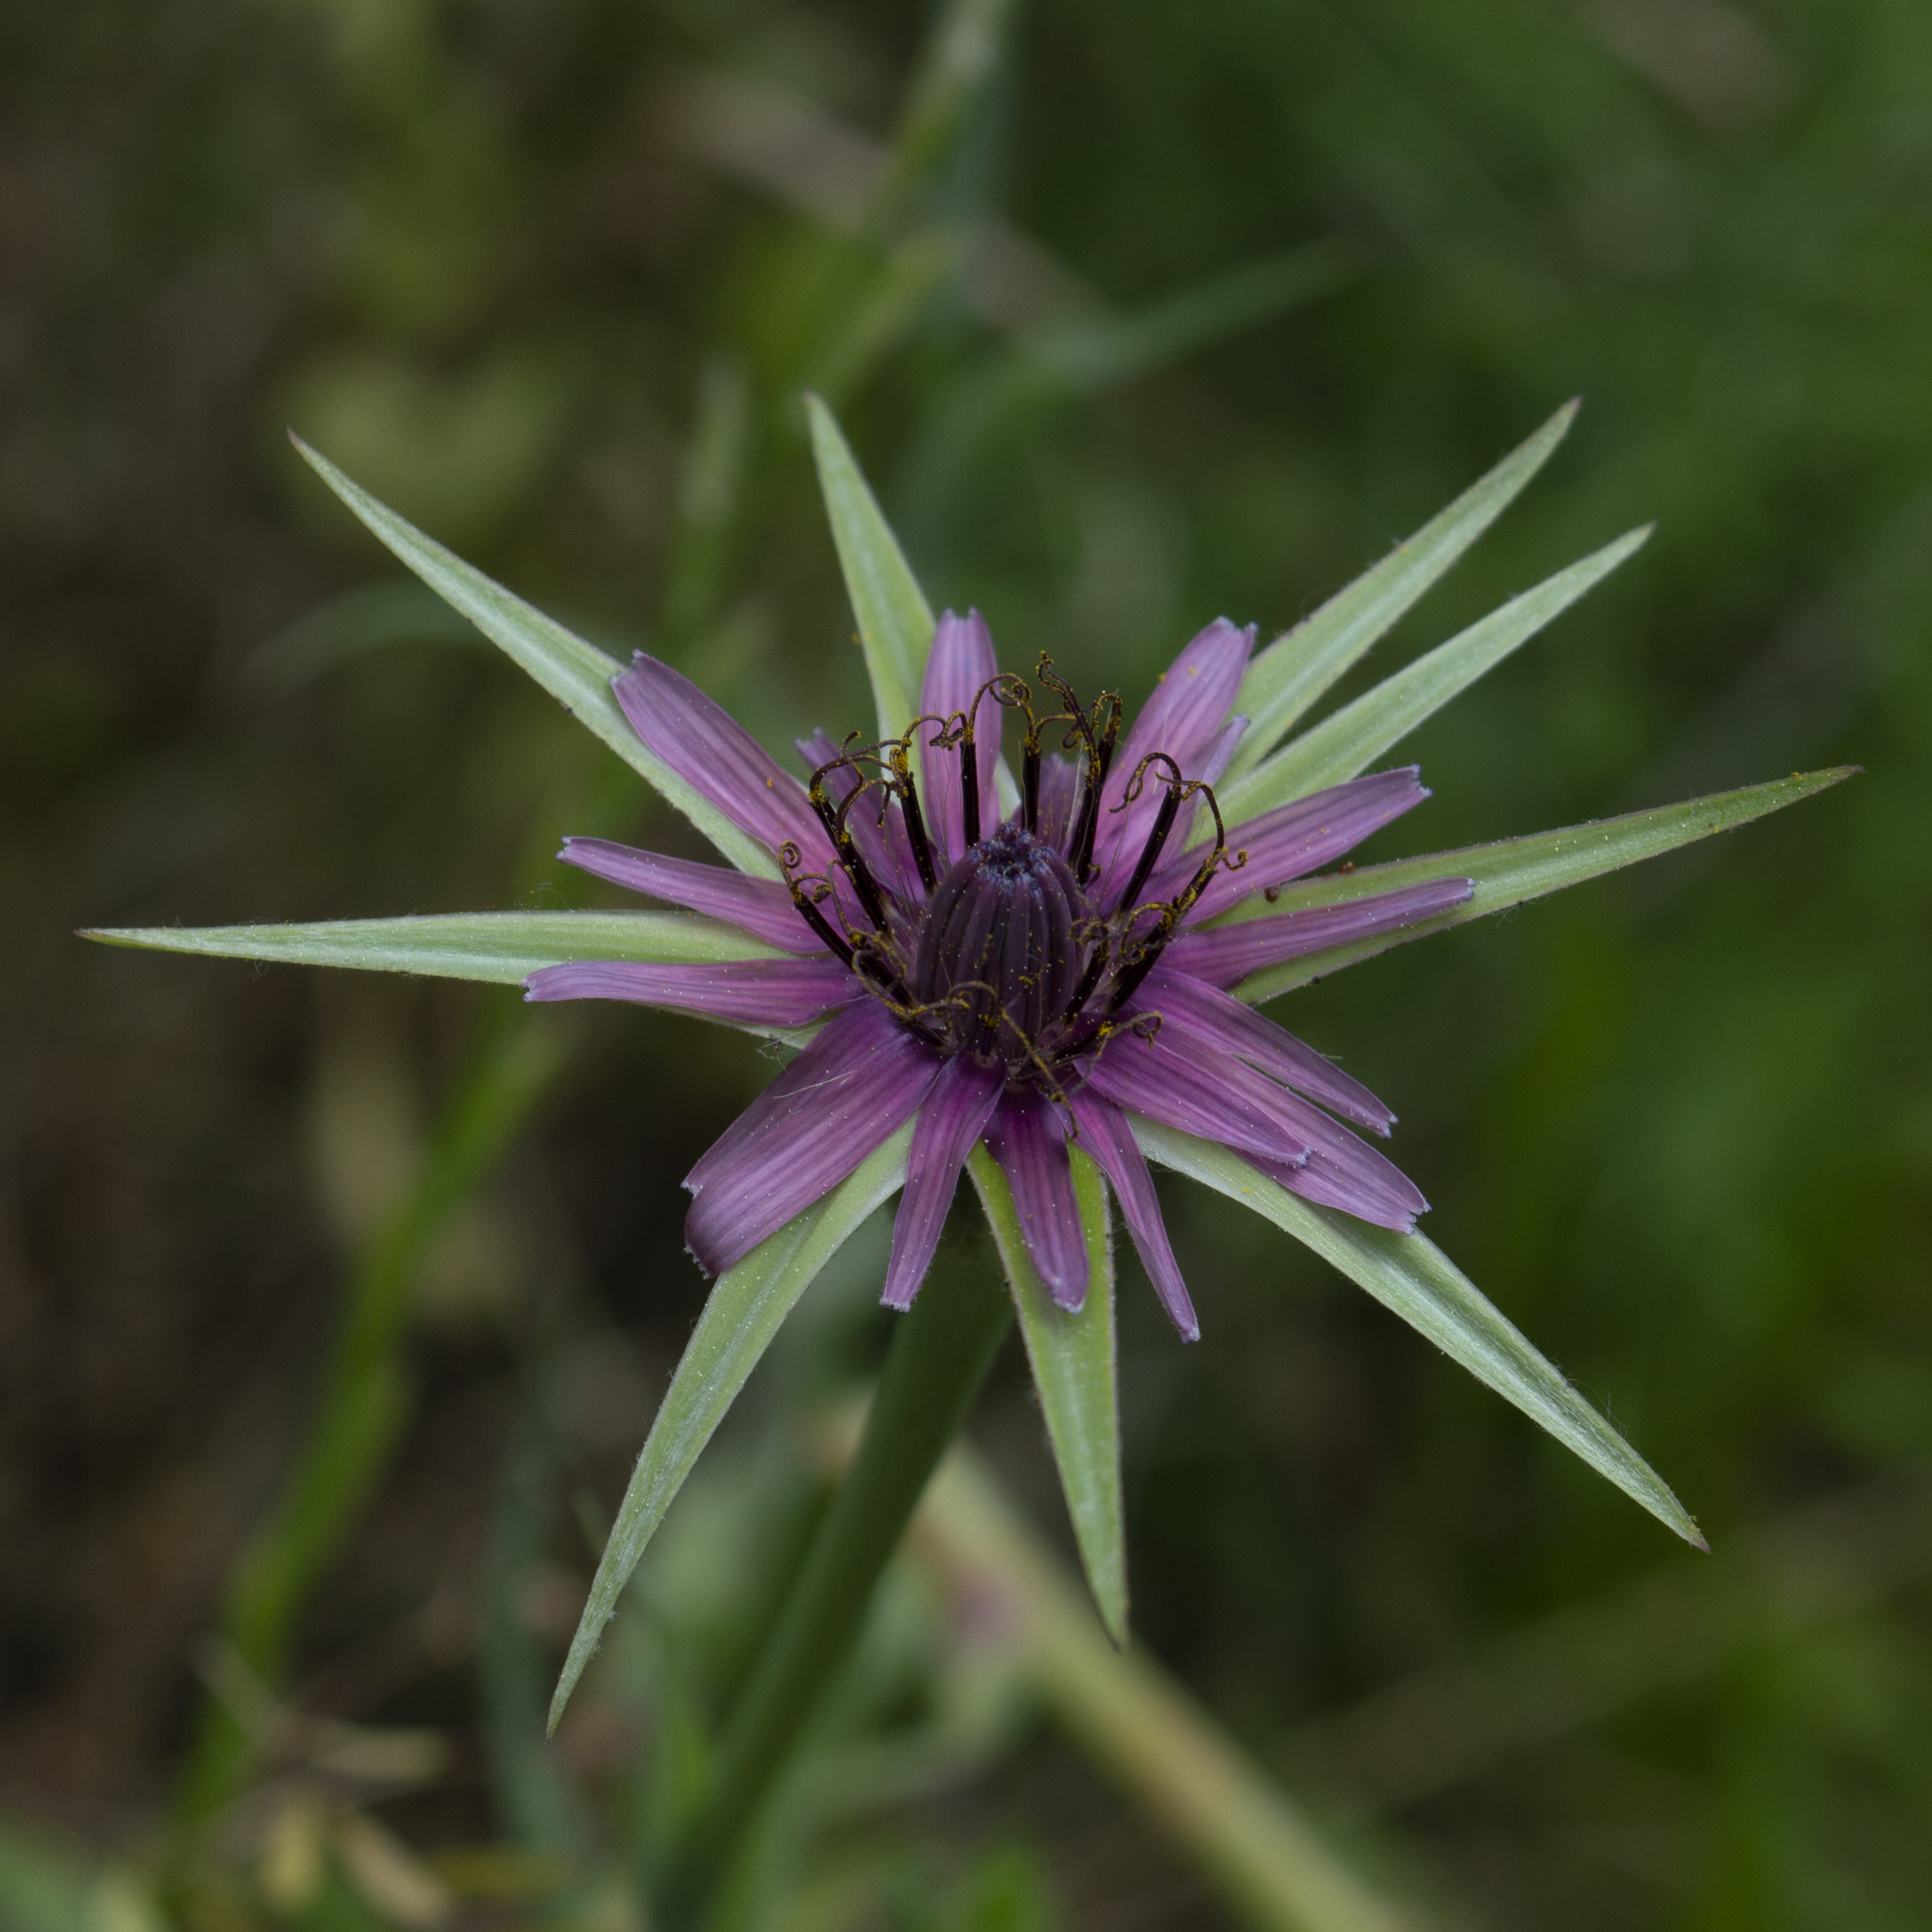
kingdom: Plantae
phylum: Tracheophyta
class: Magnoliopsida
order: Asterales
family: Asteraceae
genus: Tragopogon
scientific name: Tragopogon porrifolius
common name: Salsify
